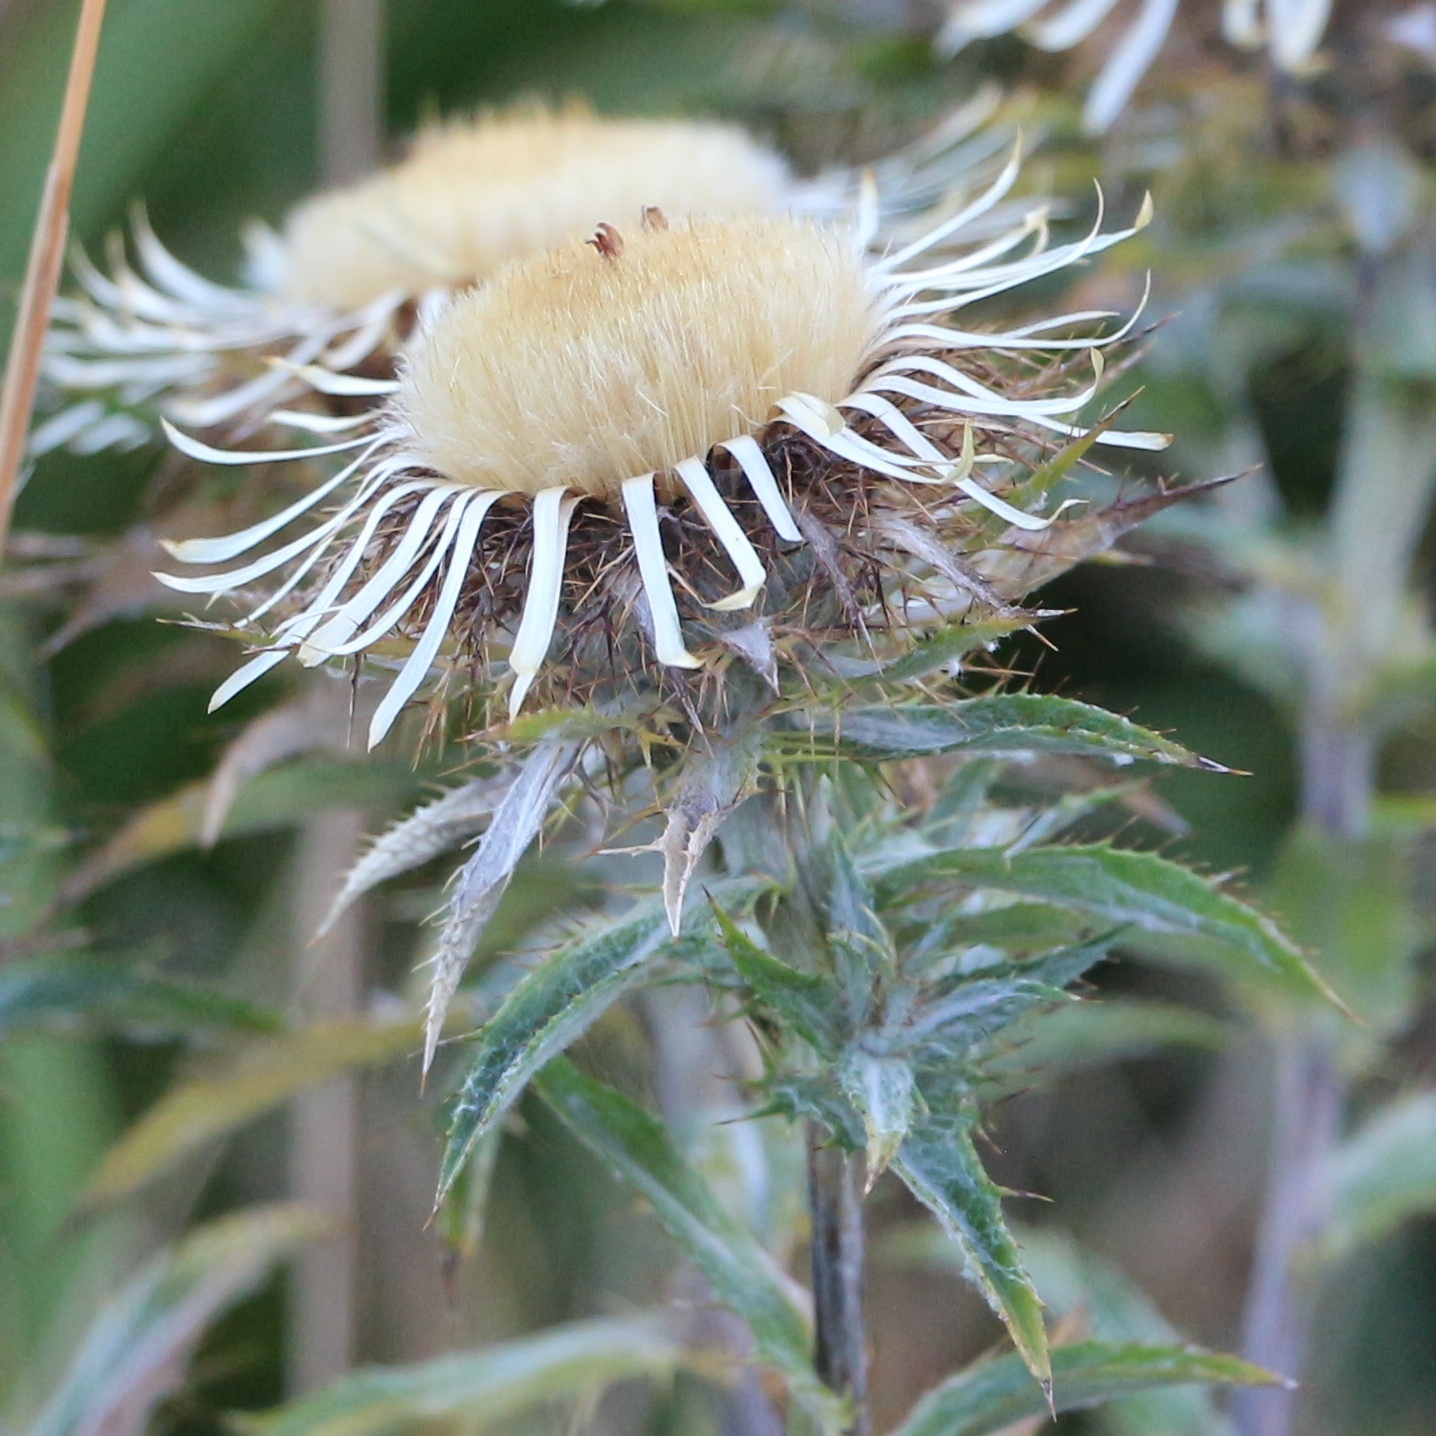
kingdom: Plantae
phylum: Tracheophyta
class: Magnoliopsida
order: Asterales
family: Asteraceae
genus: Carlina
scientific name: Carlina biebersteinii
